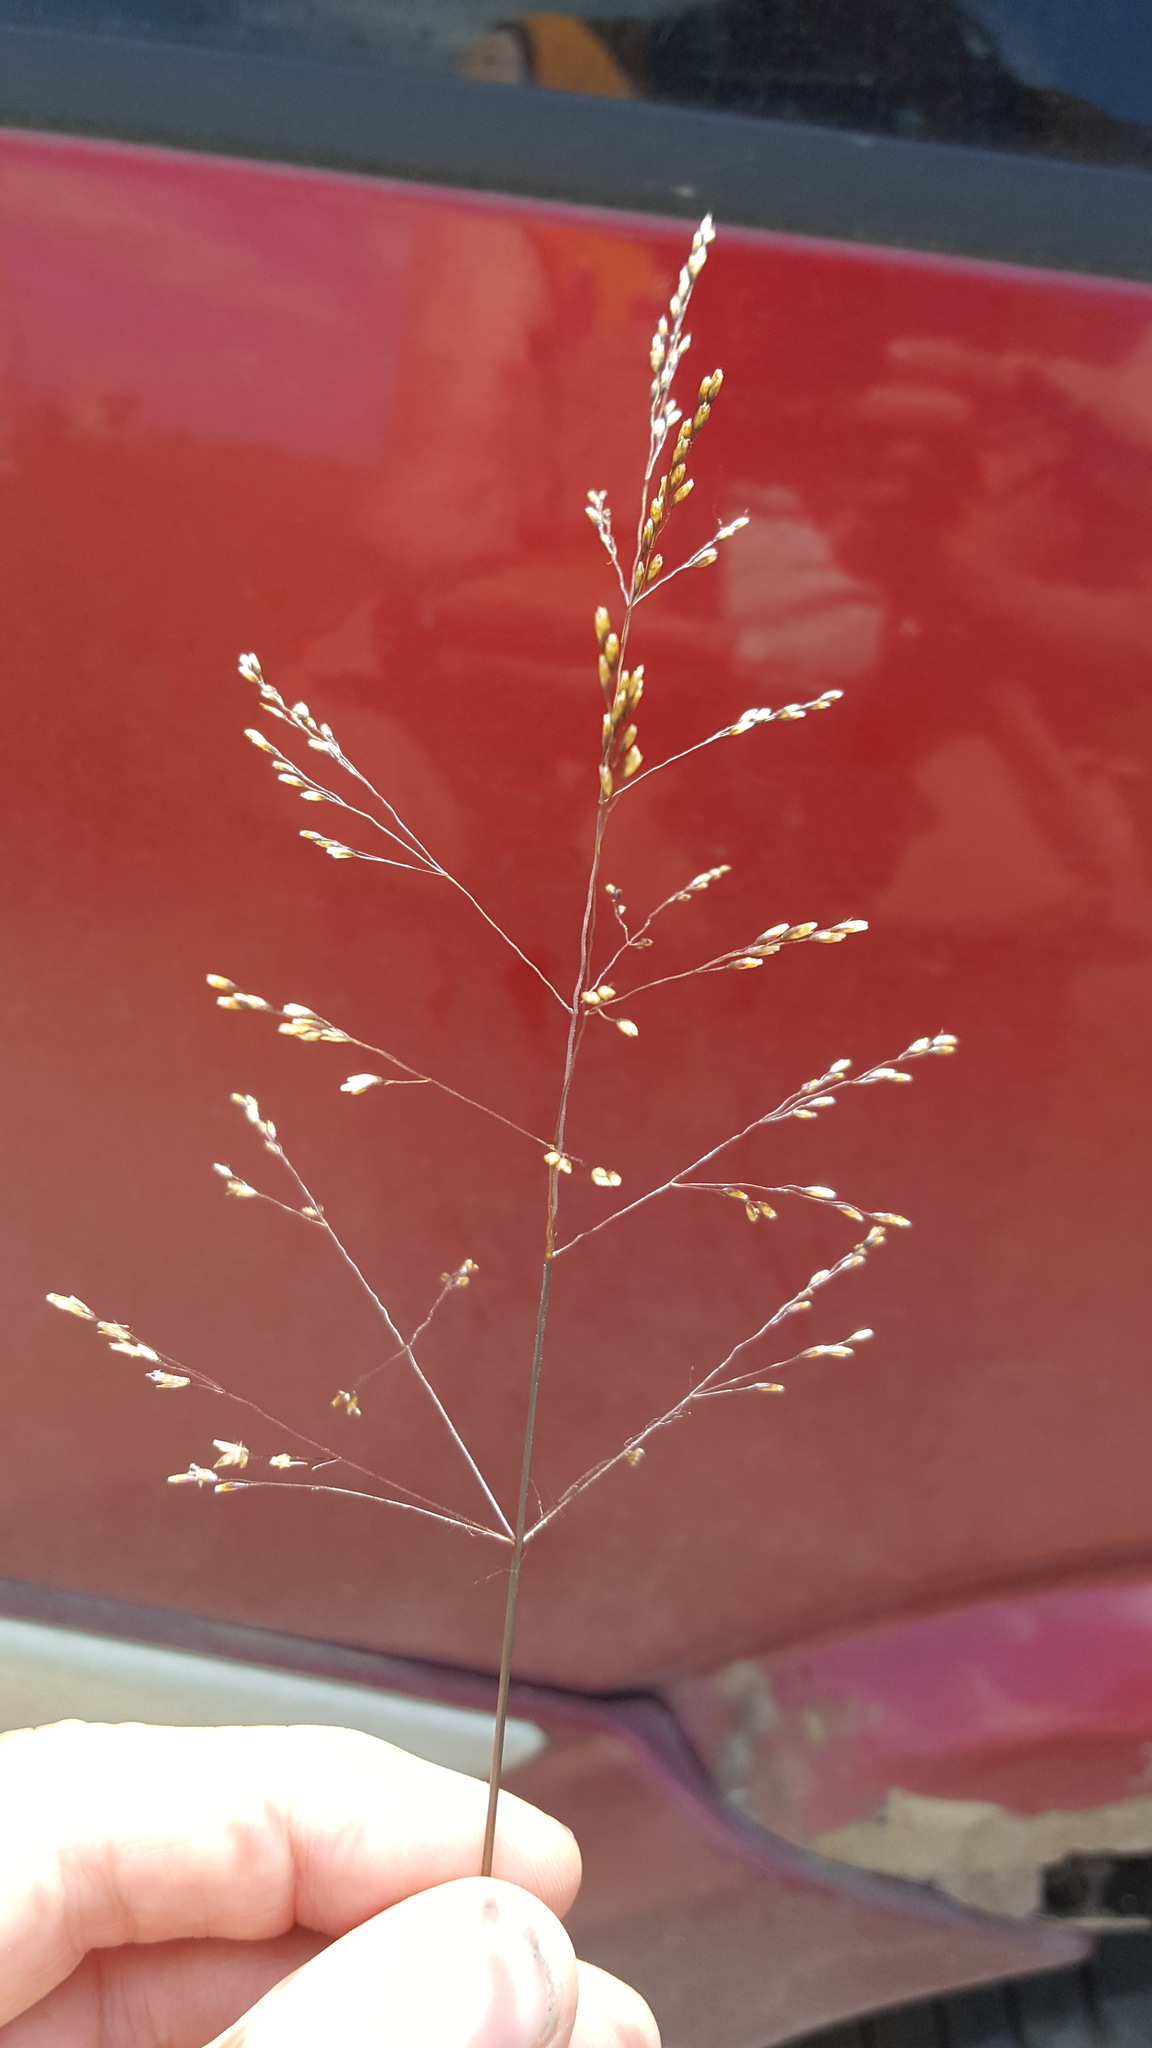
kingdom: Plantae
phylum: Tracheophyta
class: Liliopsida
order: Poales
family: Poaceae
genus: Deschampsia
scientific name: Deschampsia cespitosa
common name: Tufted hair-grass
